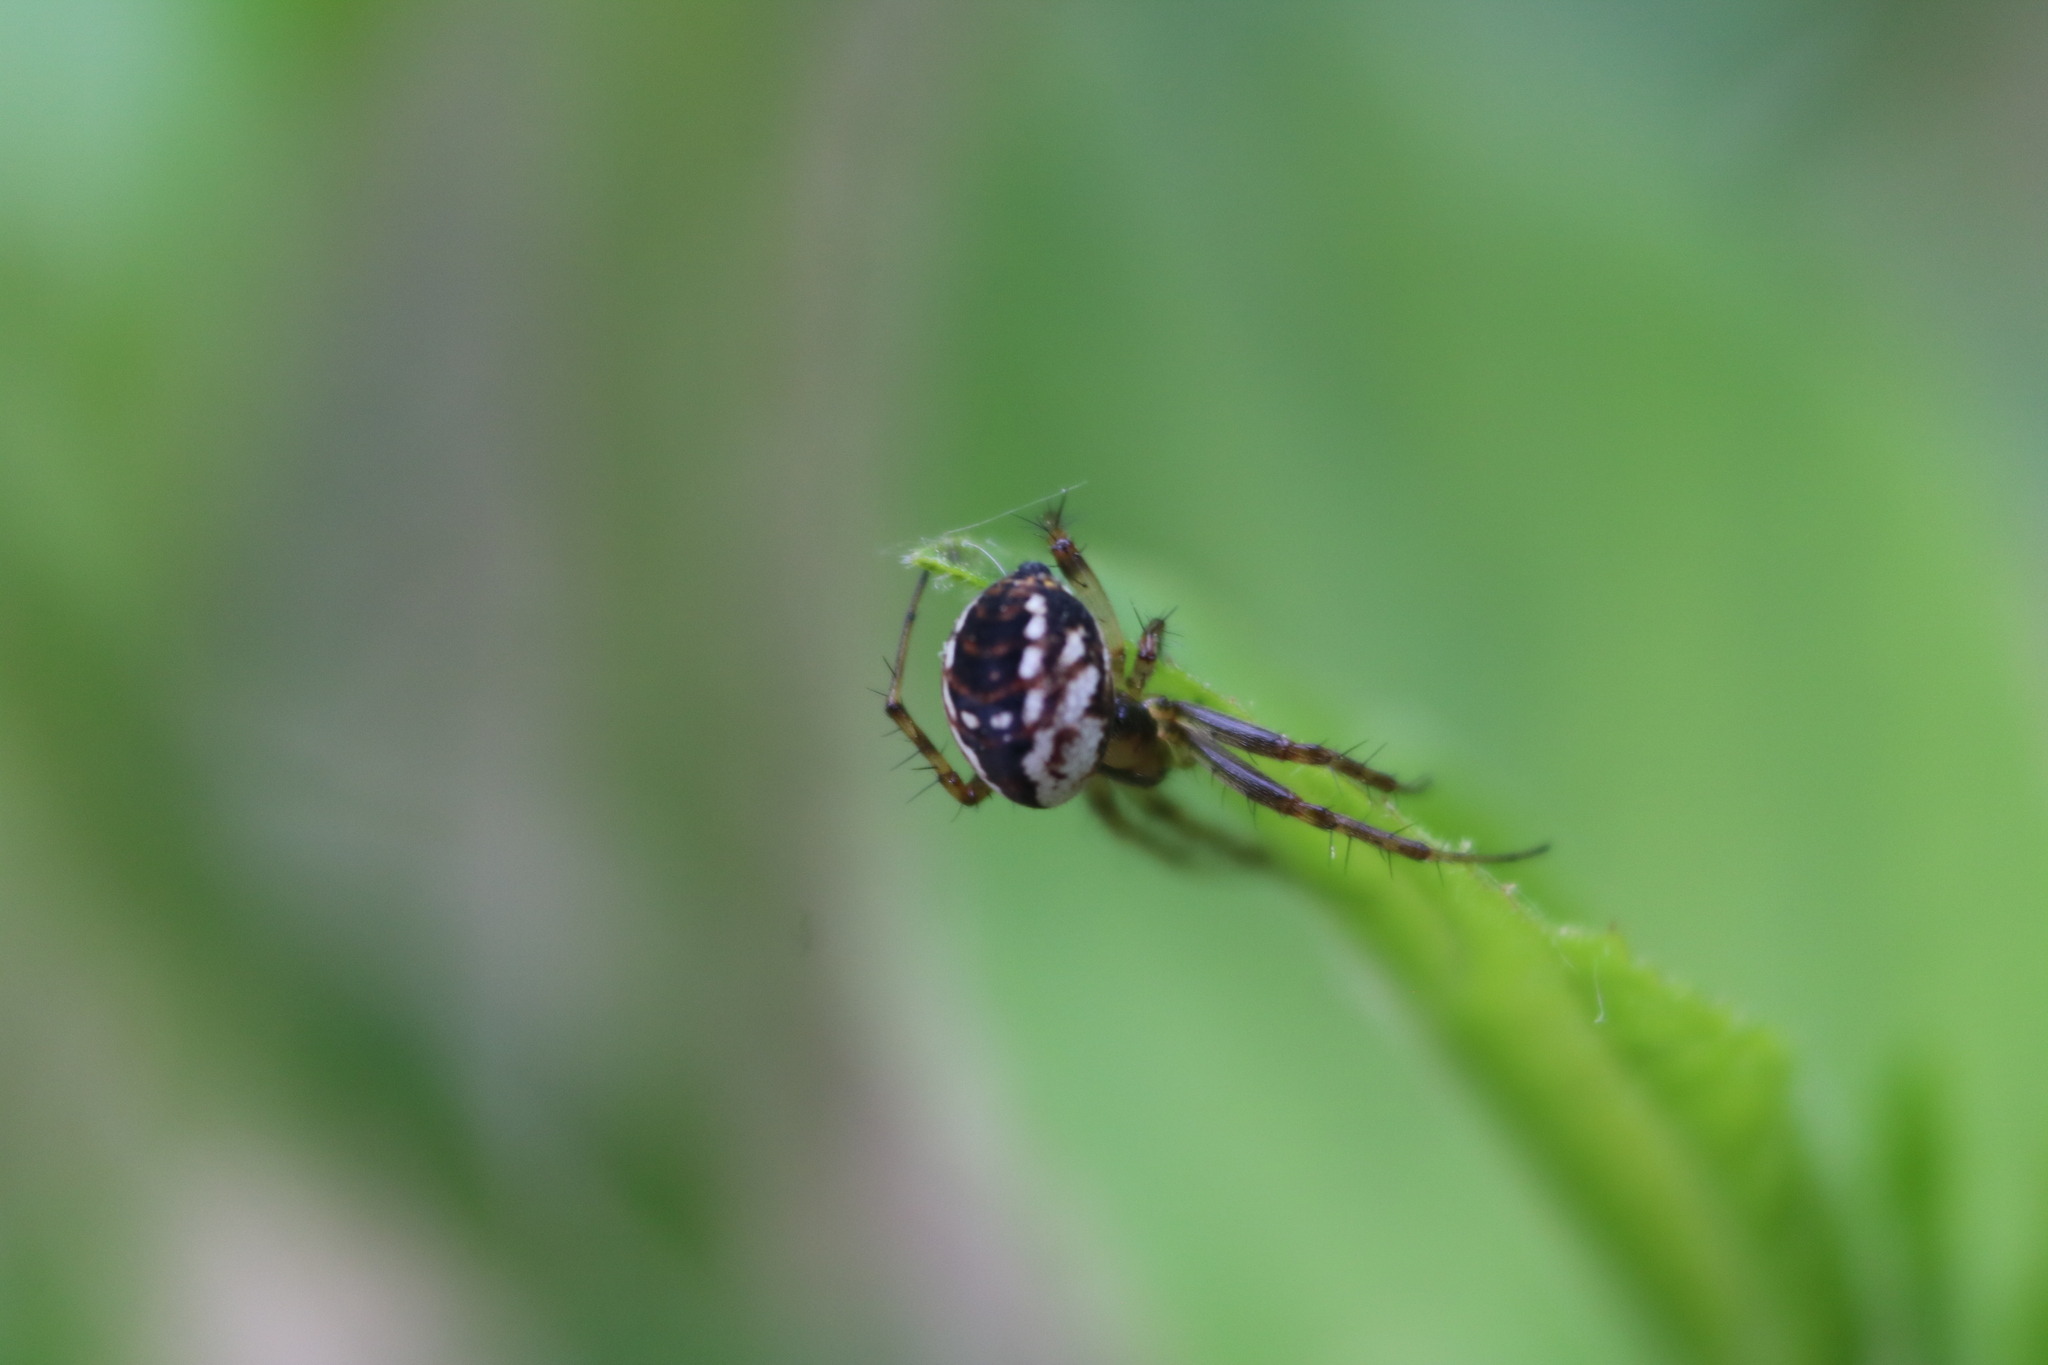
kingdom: Animalia
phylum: Arthropoda
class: Arachnida
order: Araneae
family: Araneidae
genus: Mangora
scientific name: Mangora placida
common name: Tuft-legged orbweaver
